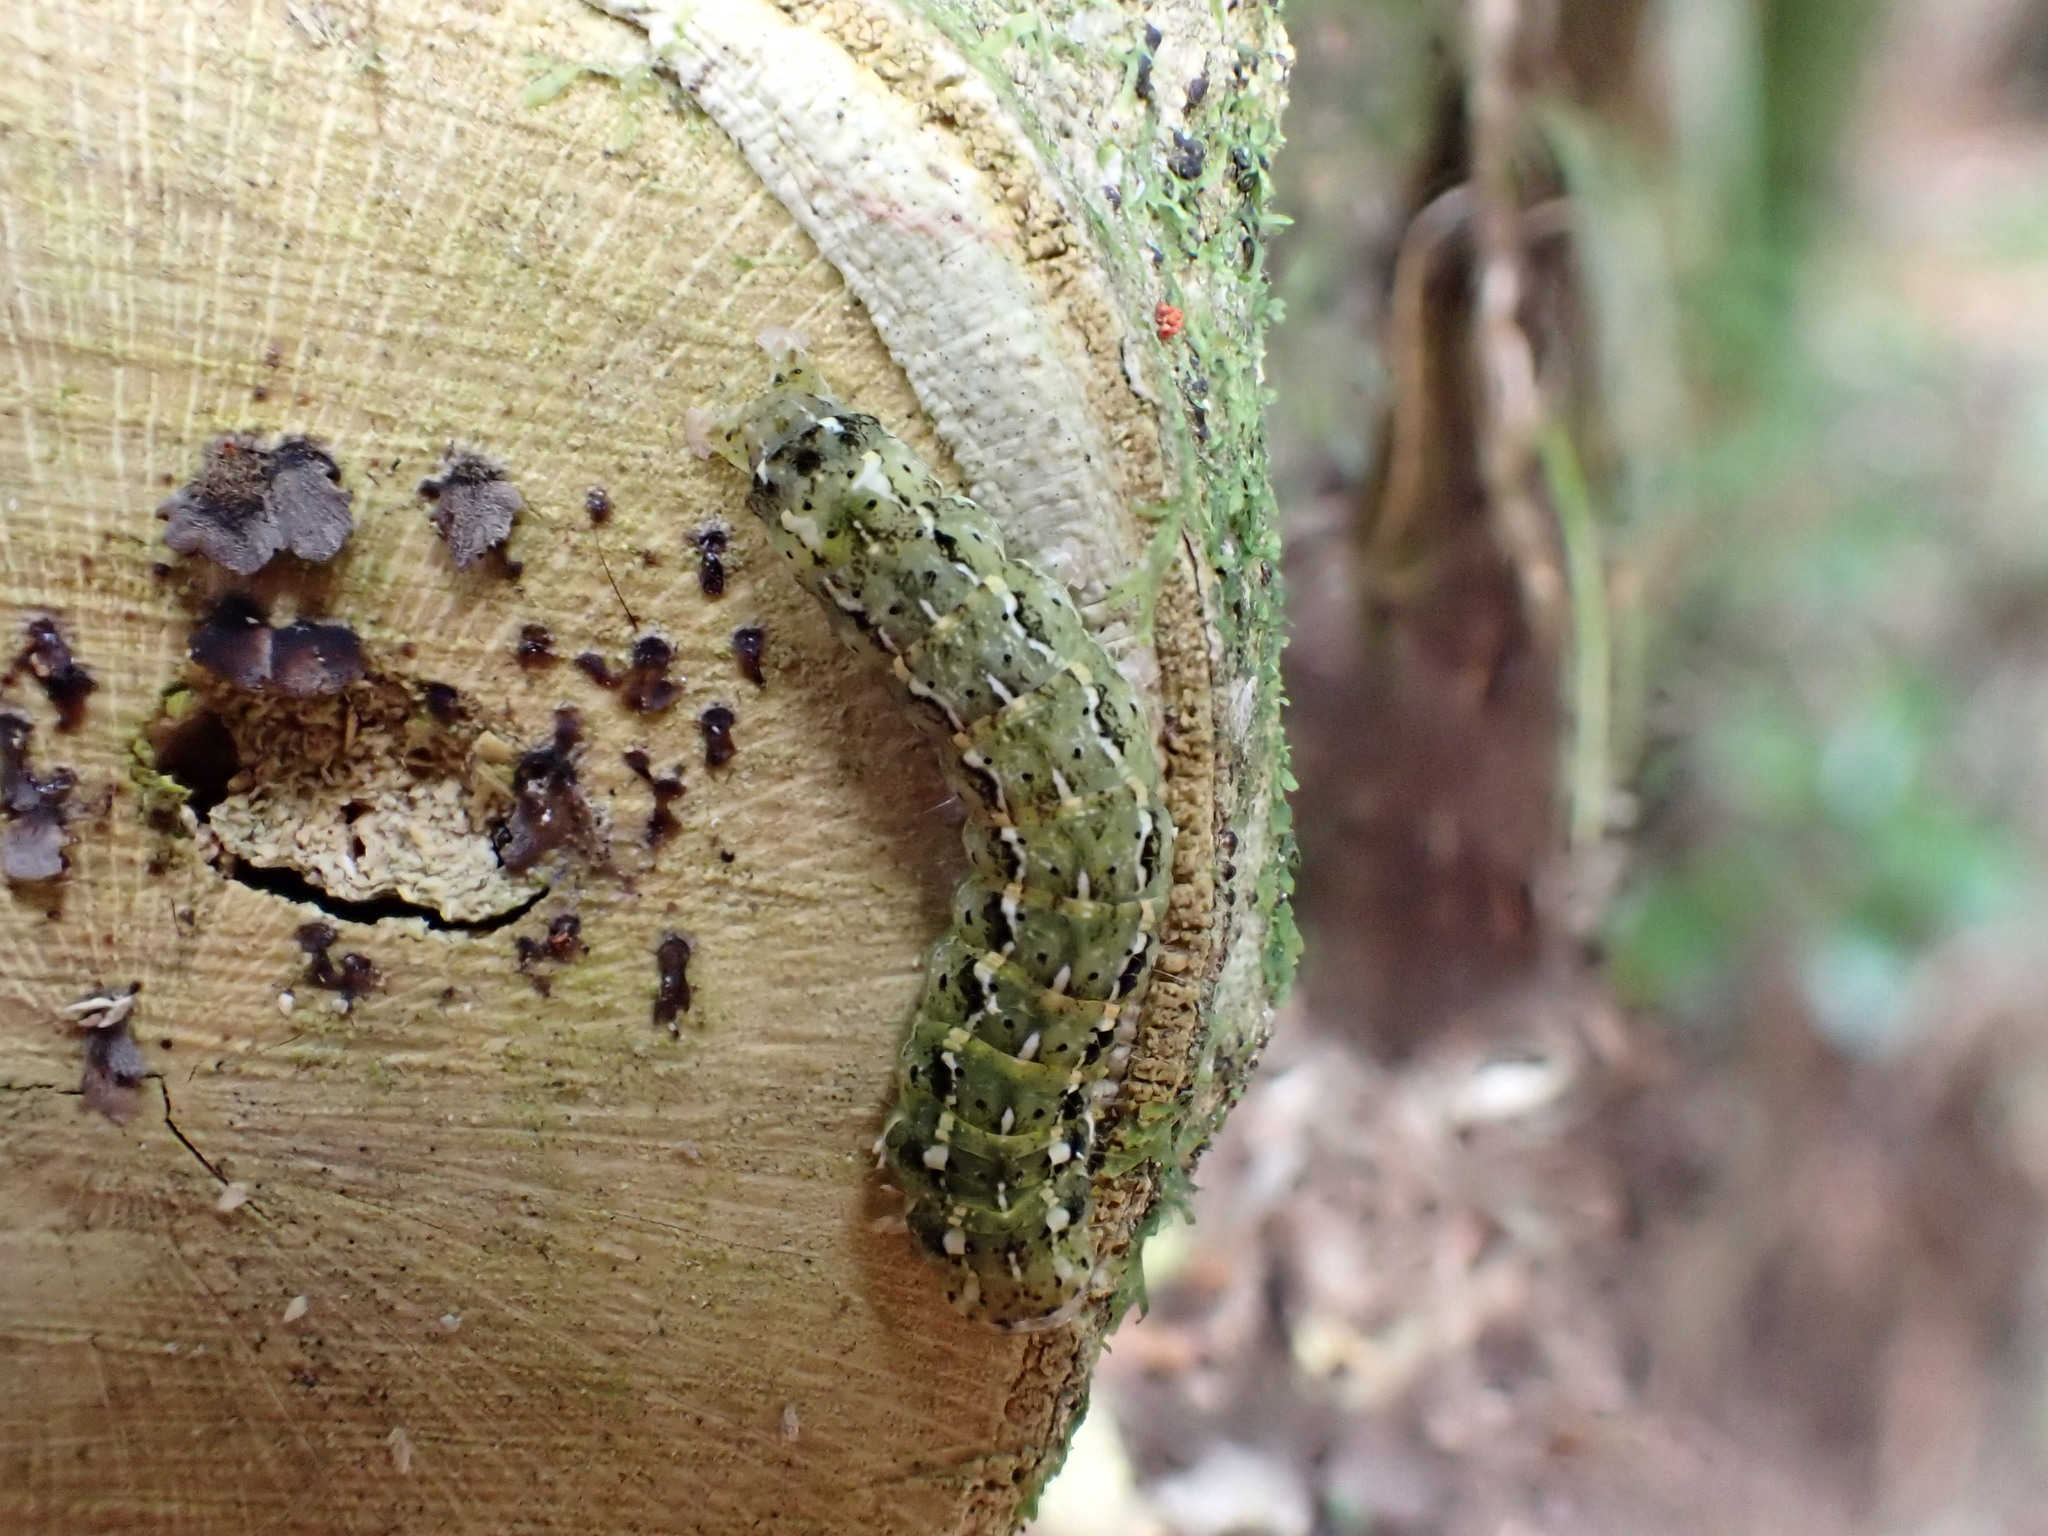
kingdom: Animalia
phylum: Arthropoda
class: Insecta
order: Lepidoptera
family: Noctuidae
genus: Feredayia
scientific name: Feredayia grammosa
